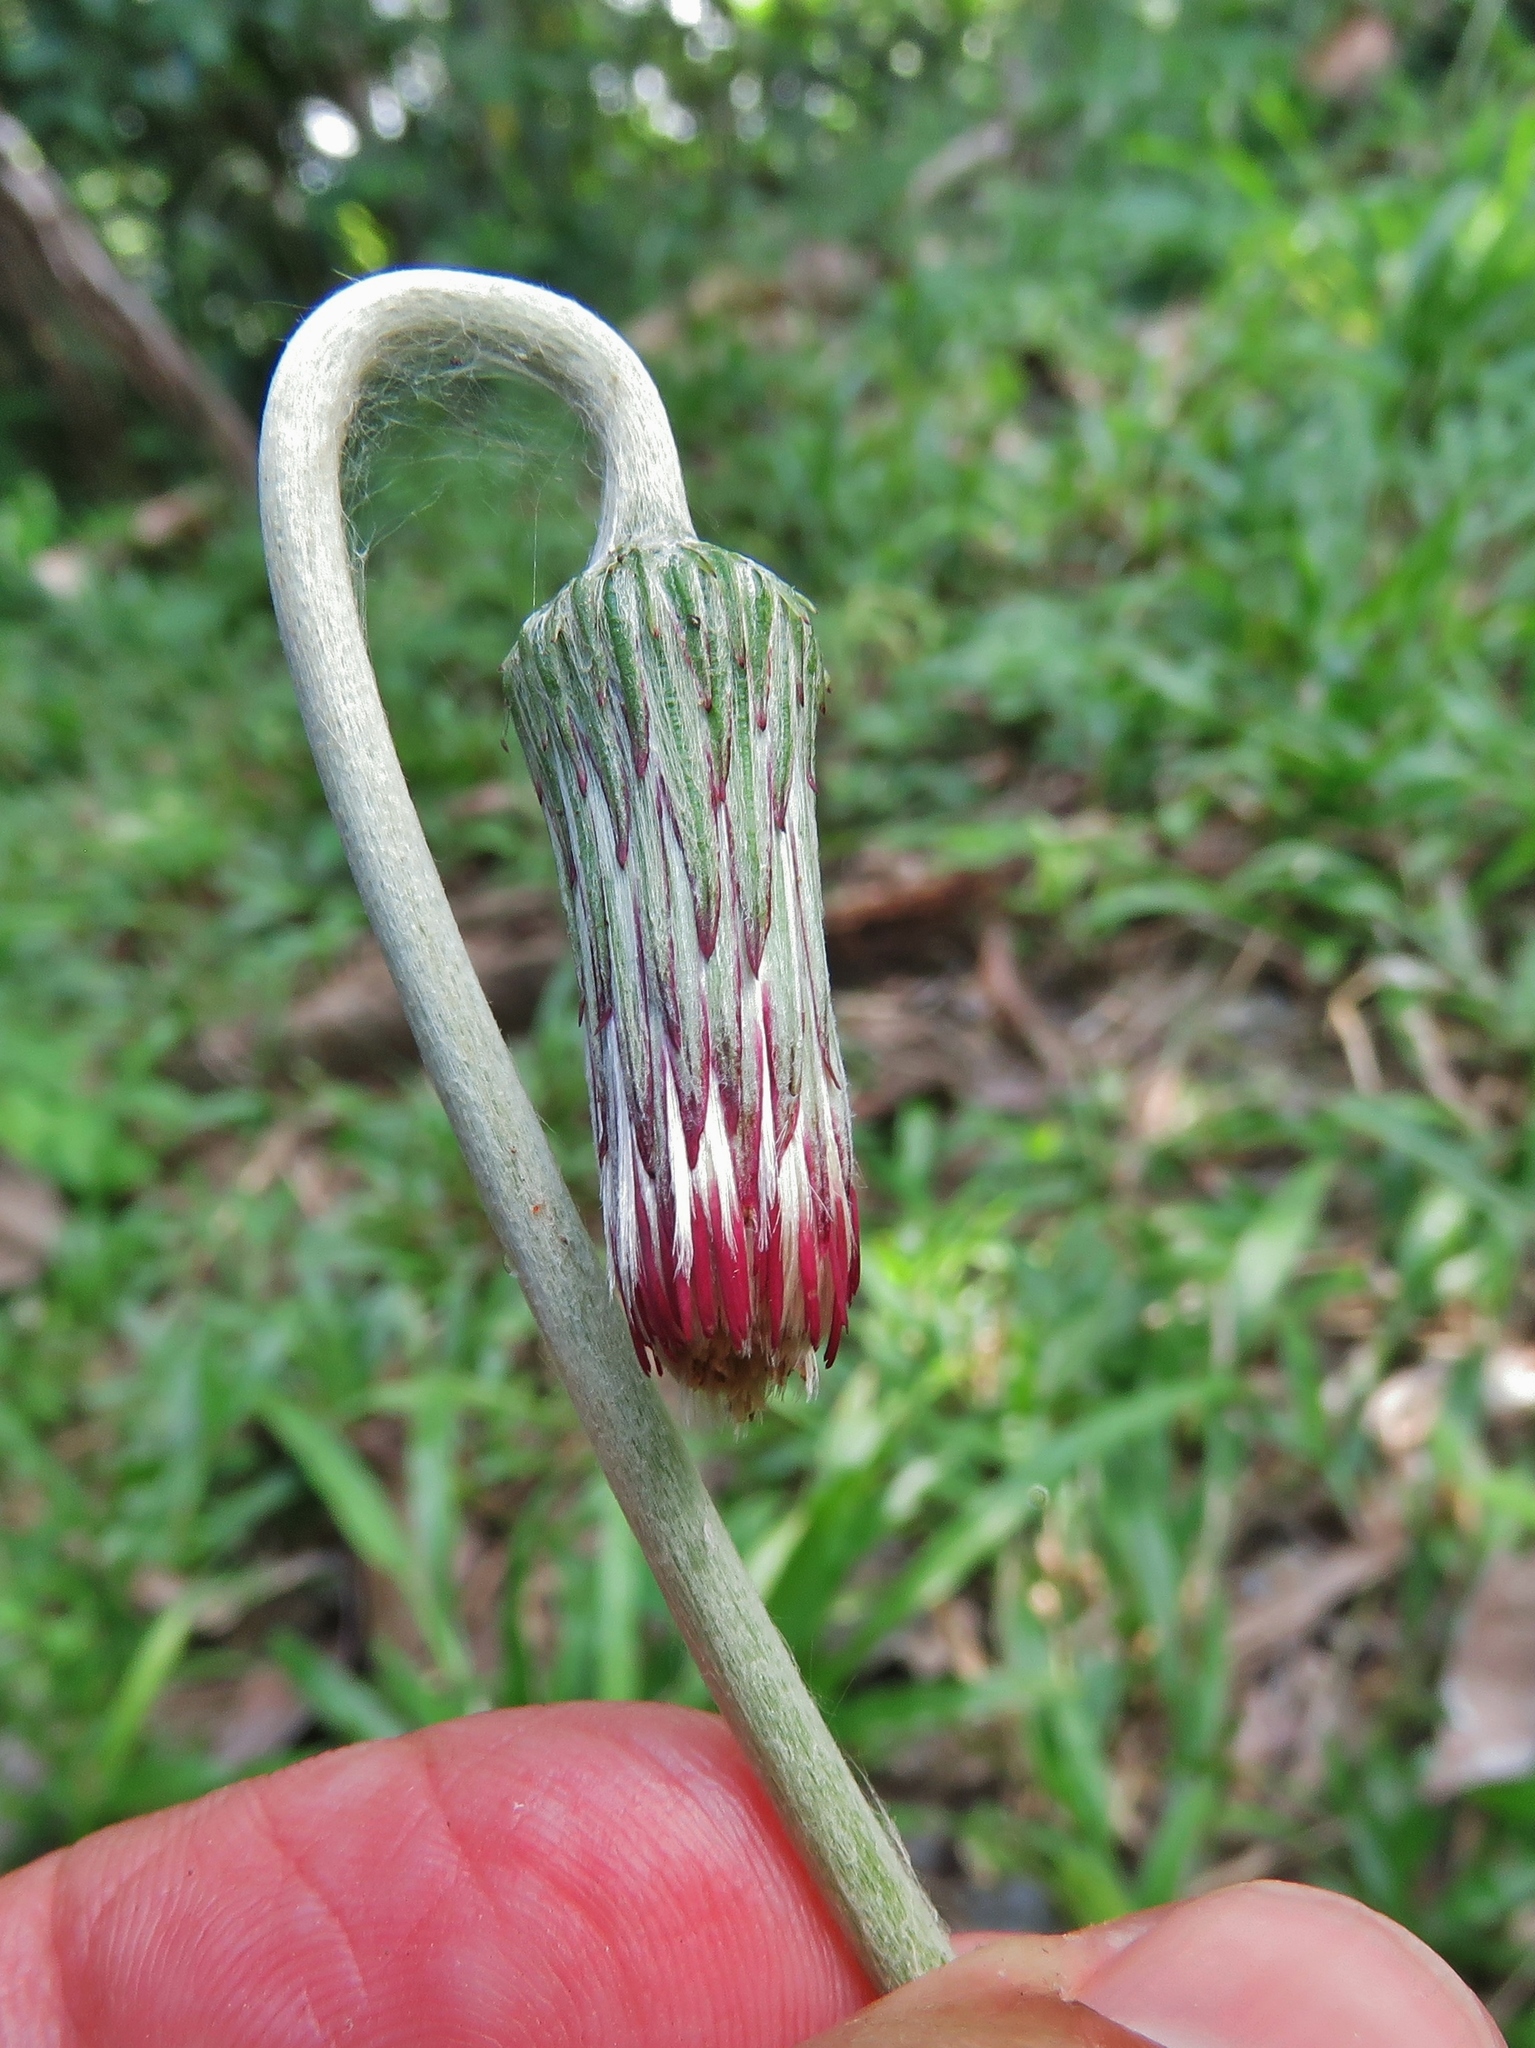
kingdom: Plantae
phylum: Tracheophyta
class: Magnoliopsida
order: Asterales
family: Asteraceae
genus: Chaptalia
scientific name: Chaptalia nutans
